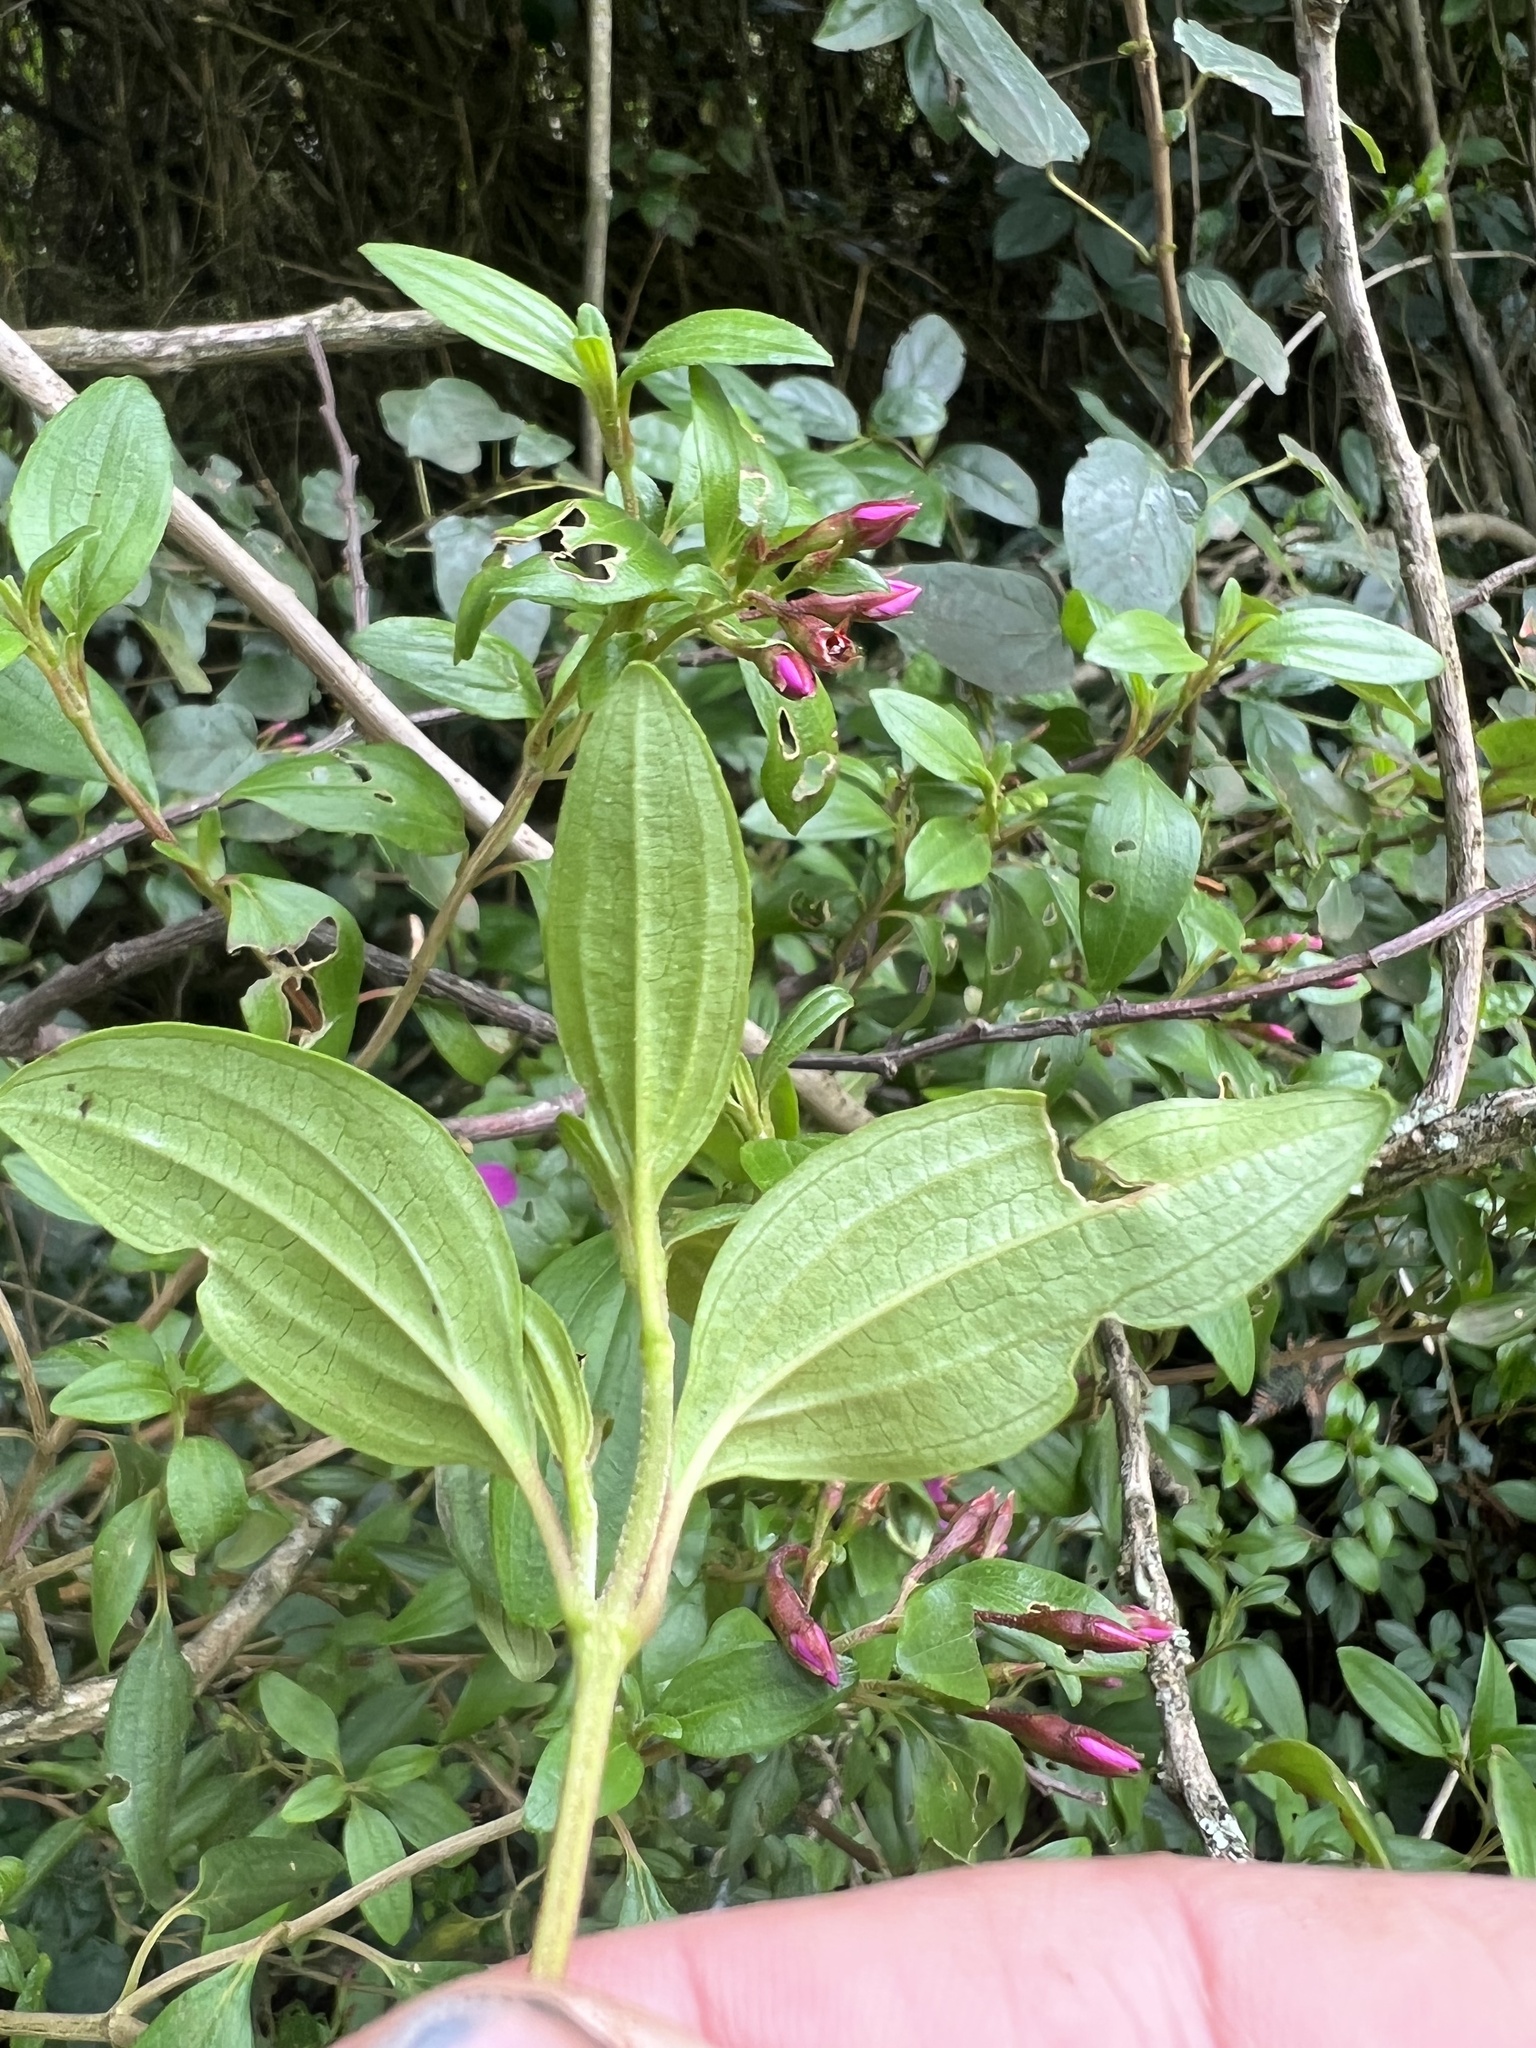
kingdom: Plantae
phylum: Tracheophyta
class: Magnoliopsida
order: Myrtales
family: Melastomataceae
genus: Monochaetum
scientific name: Monochaetum myrtoideum
